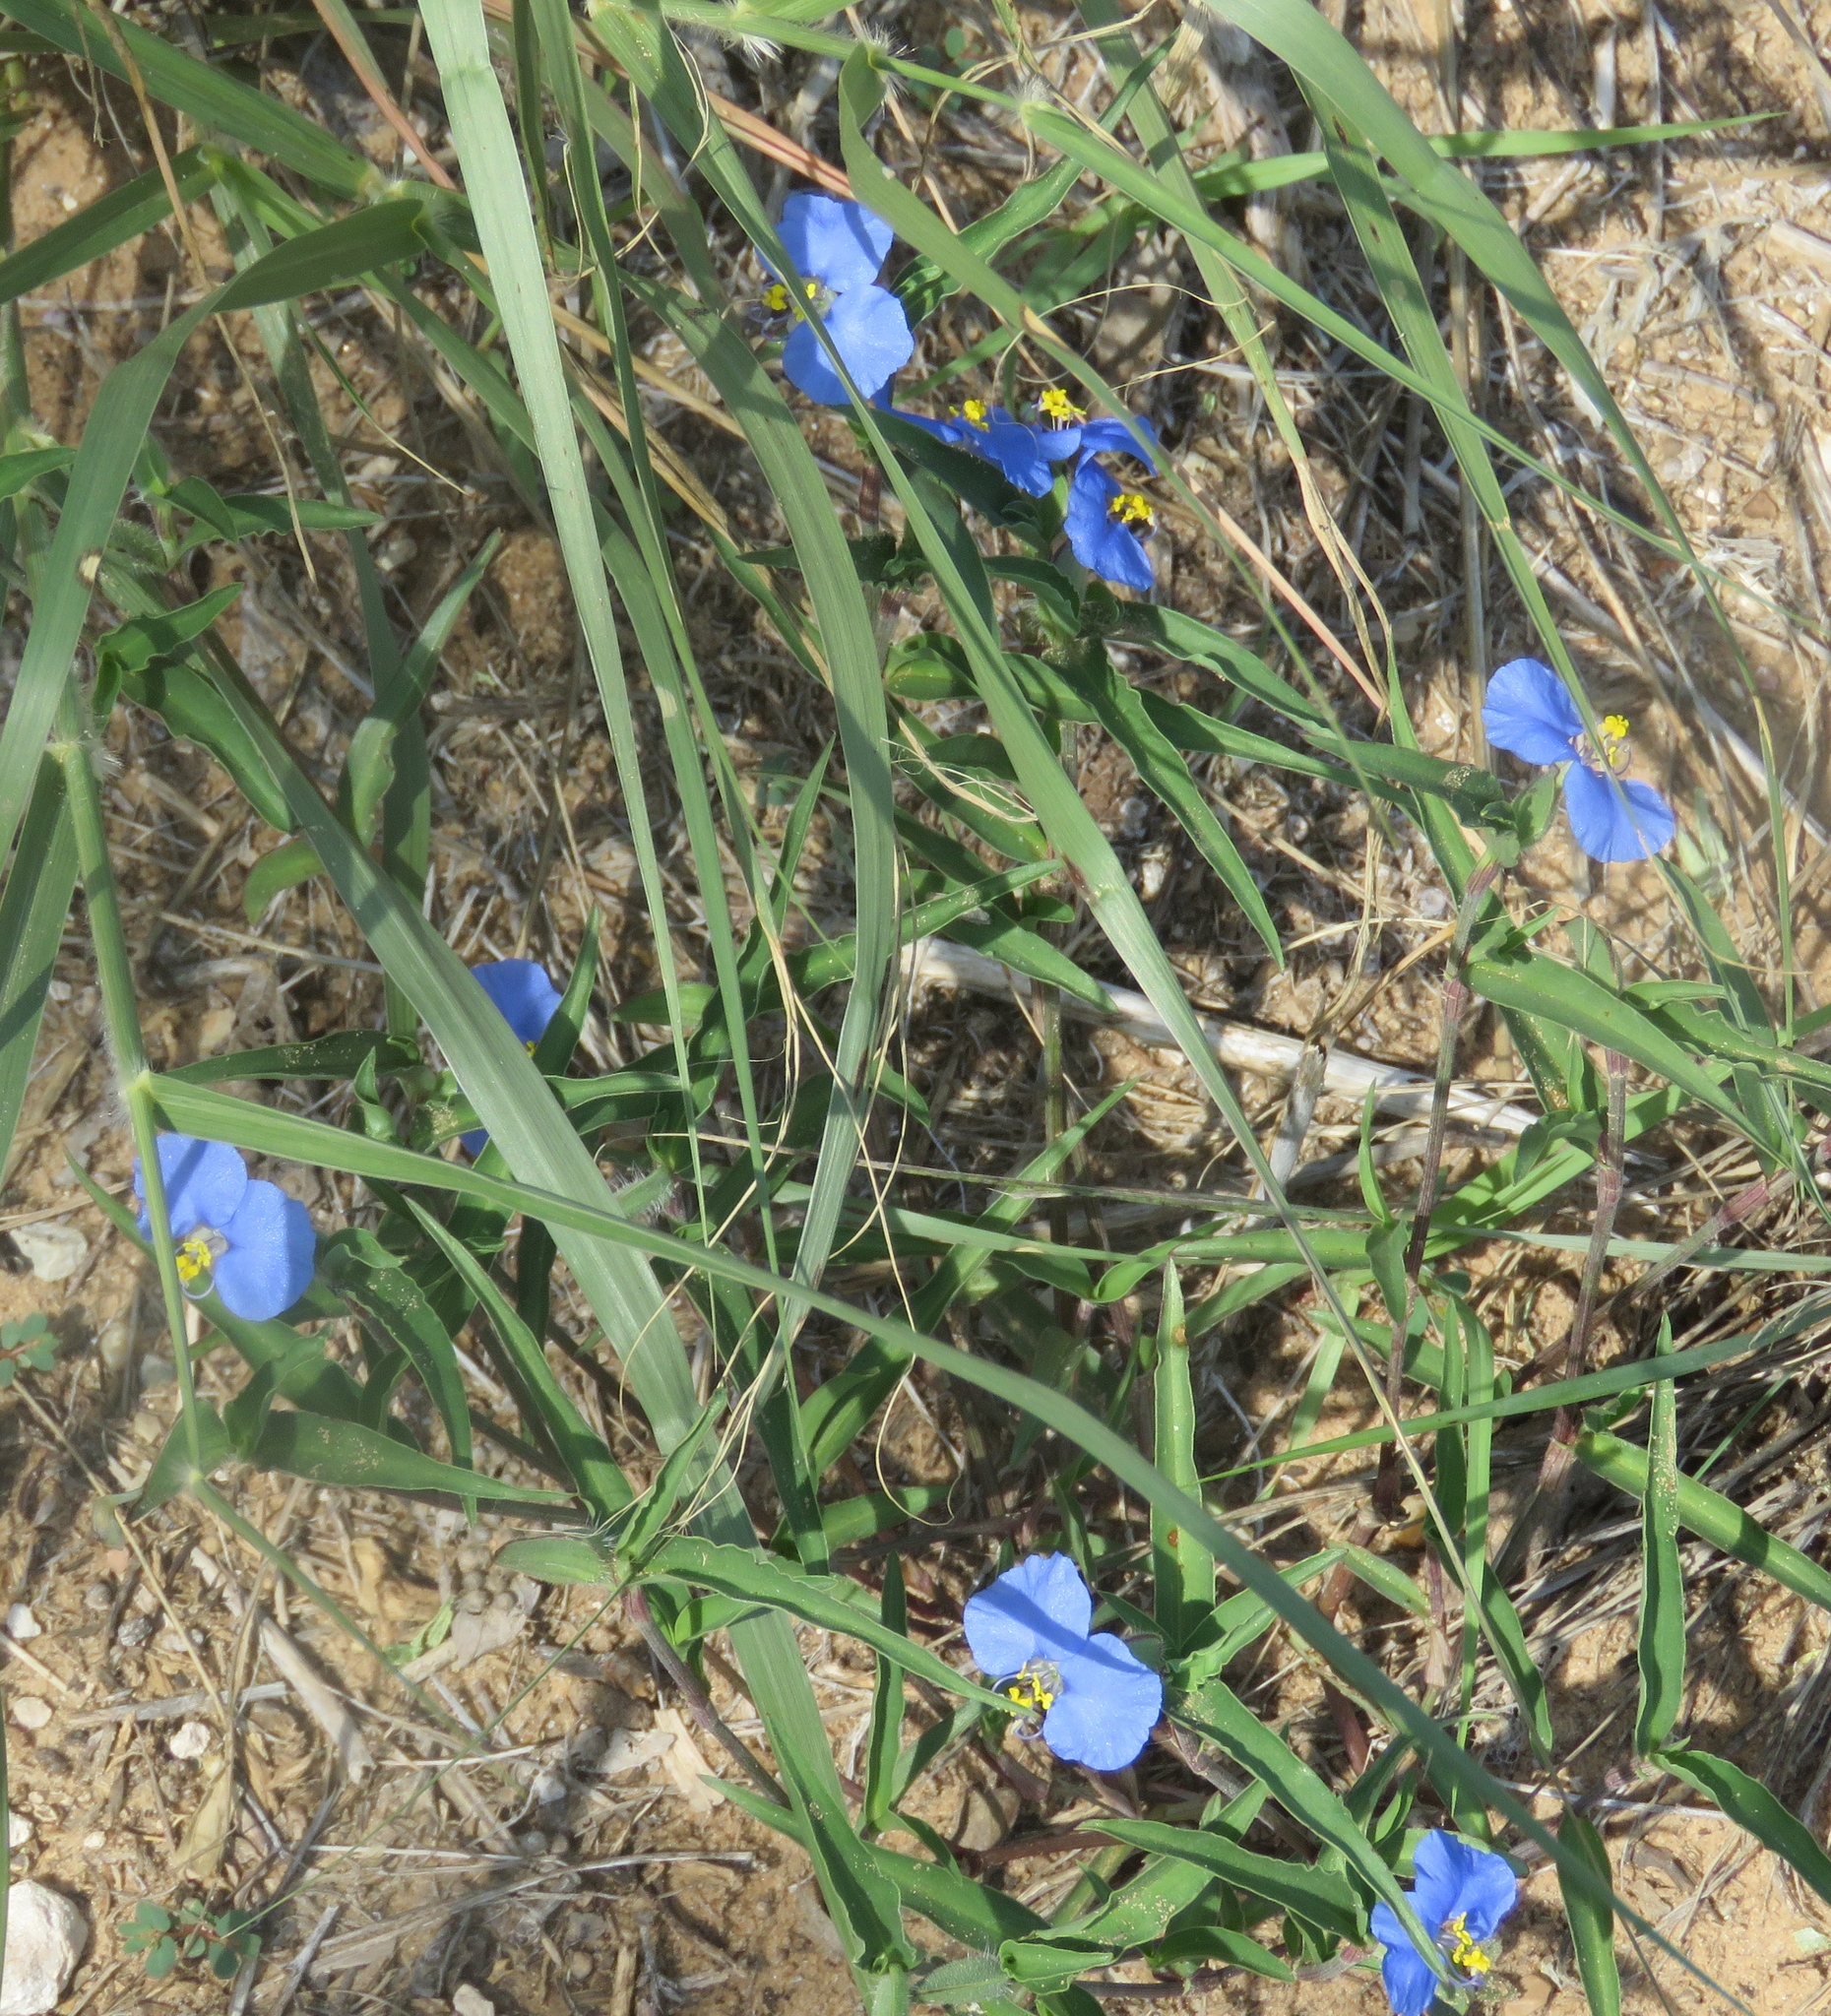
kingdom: Plantae
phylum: Tracheophyta
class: Liliopsida
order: Commelinales
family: Commelinaceae
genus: Commelina
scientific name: Commelina erecta
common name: Blousel blommetjie
